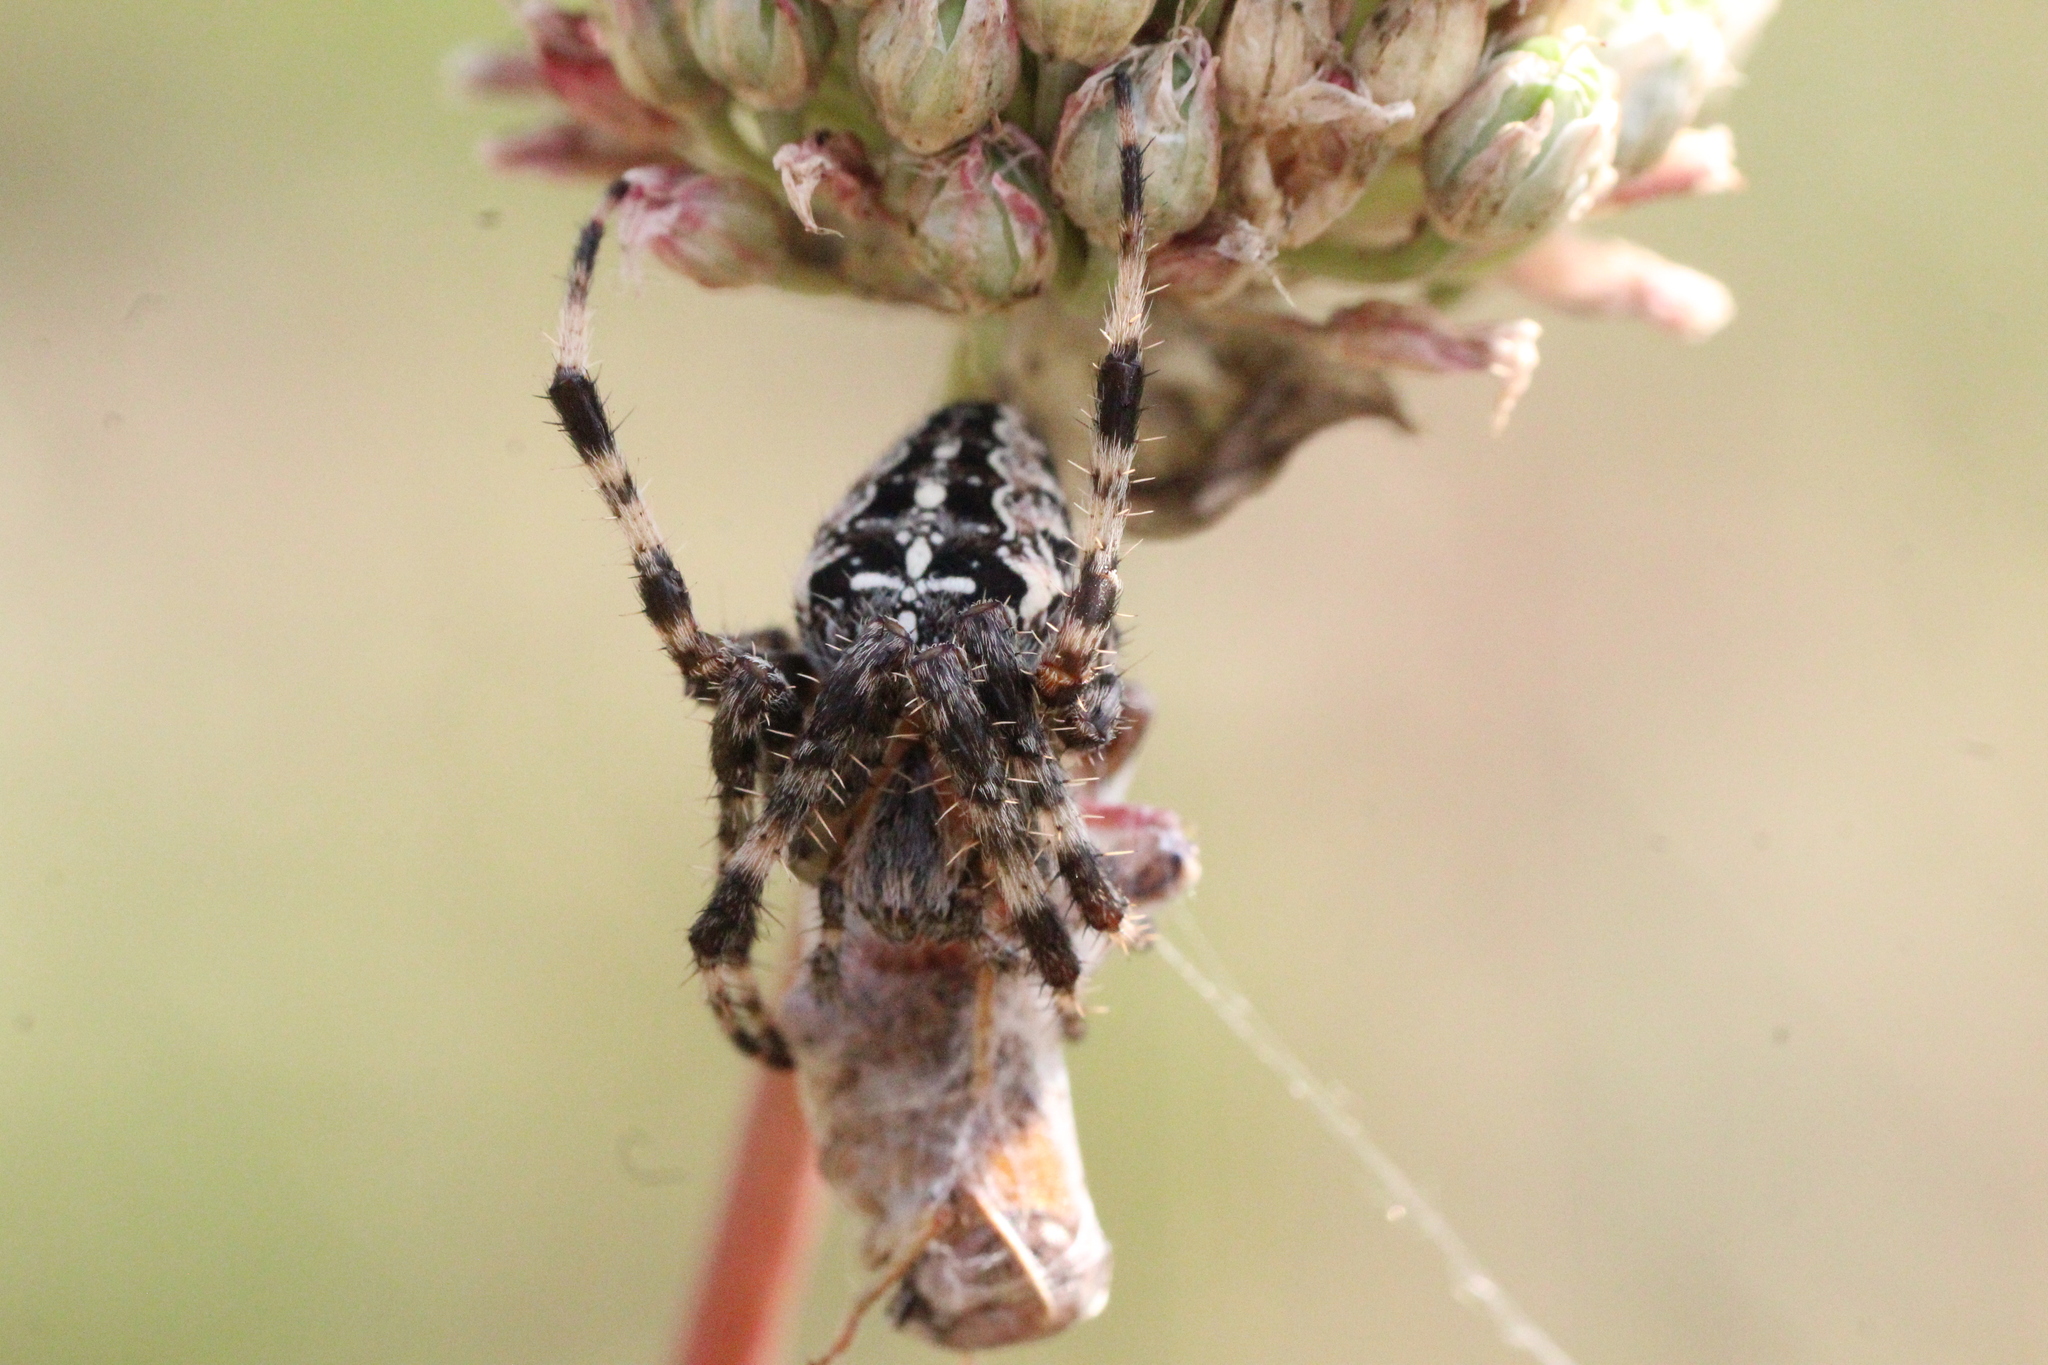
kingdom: Animalia
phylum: Arthropoda
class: Arachnida
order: Araneae
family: Araneidae
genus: Araneus
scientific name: Araneus diadematus
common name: Cross orbweaver
